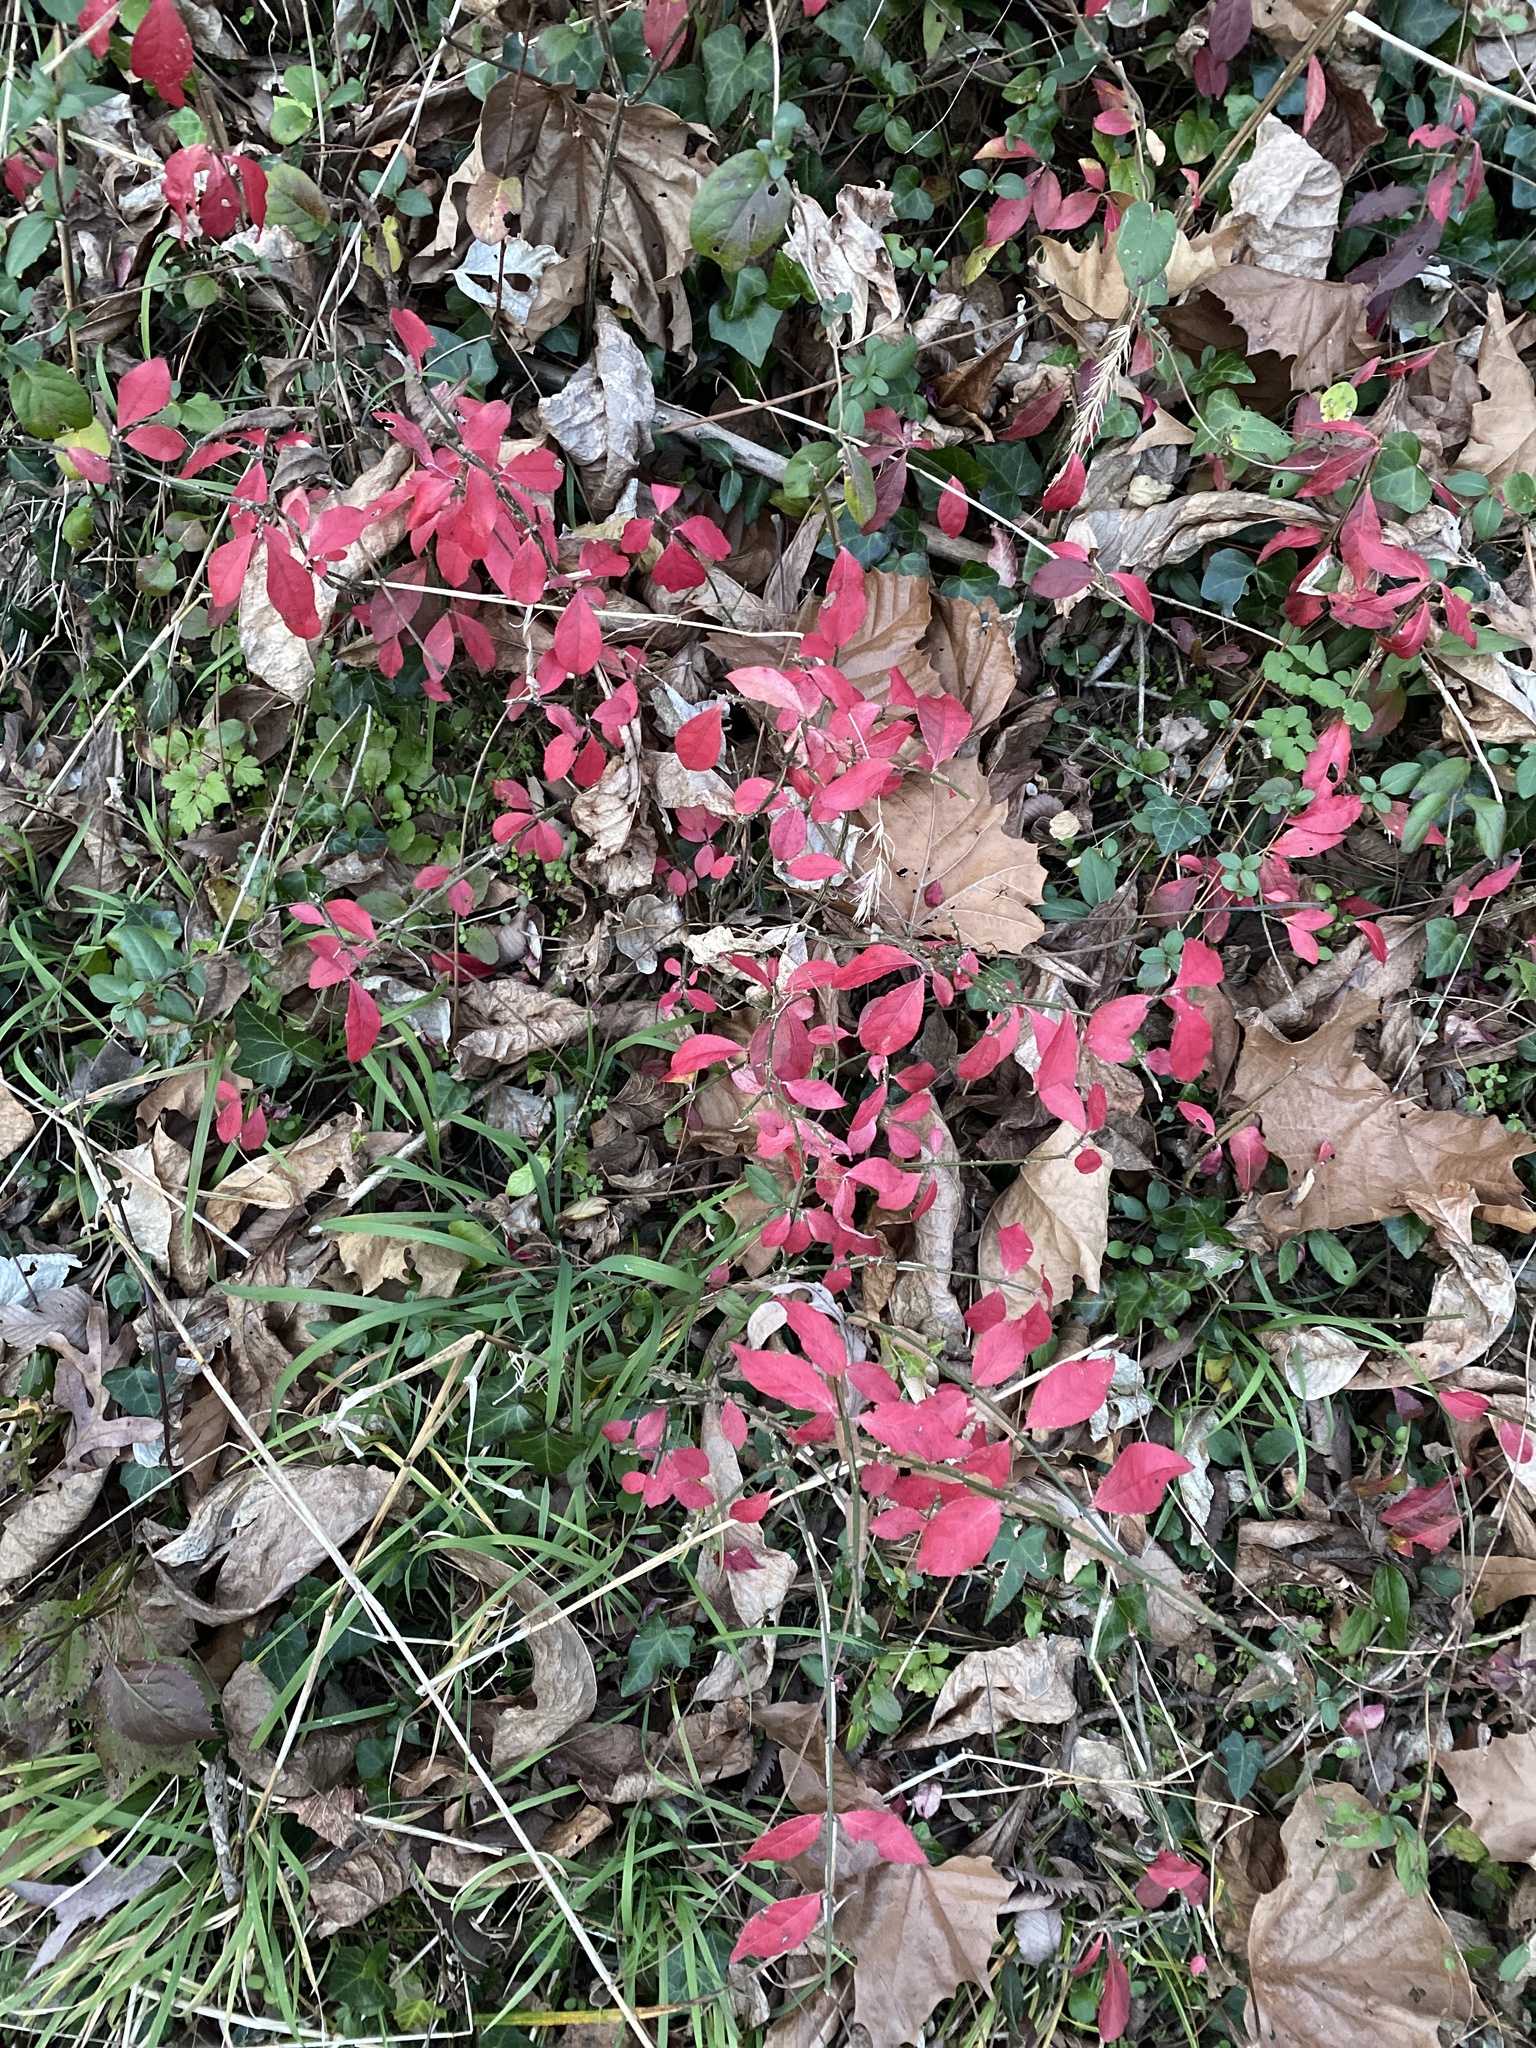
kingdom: Plantae
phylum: Tracheophyta
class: Magnoliopsida
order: Celastrales
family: Celastraceae
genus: Euonymus
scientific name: Euonymus alatus
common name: Winged euonymus
